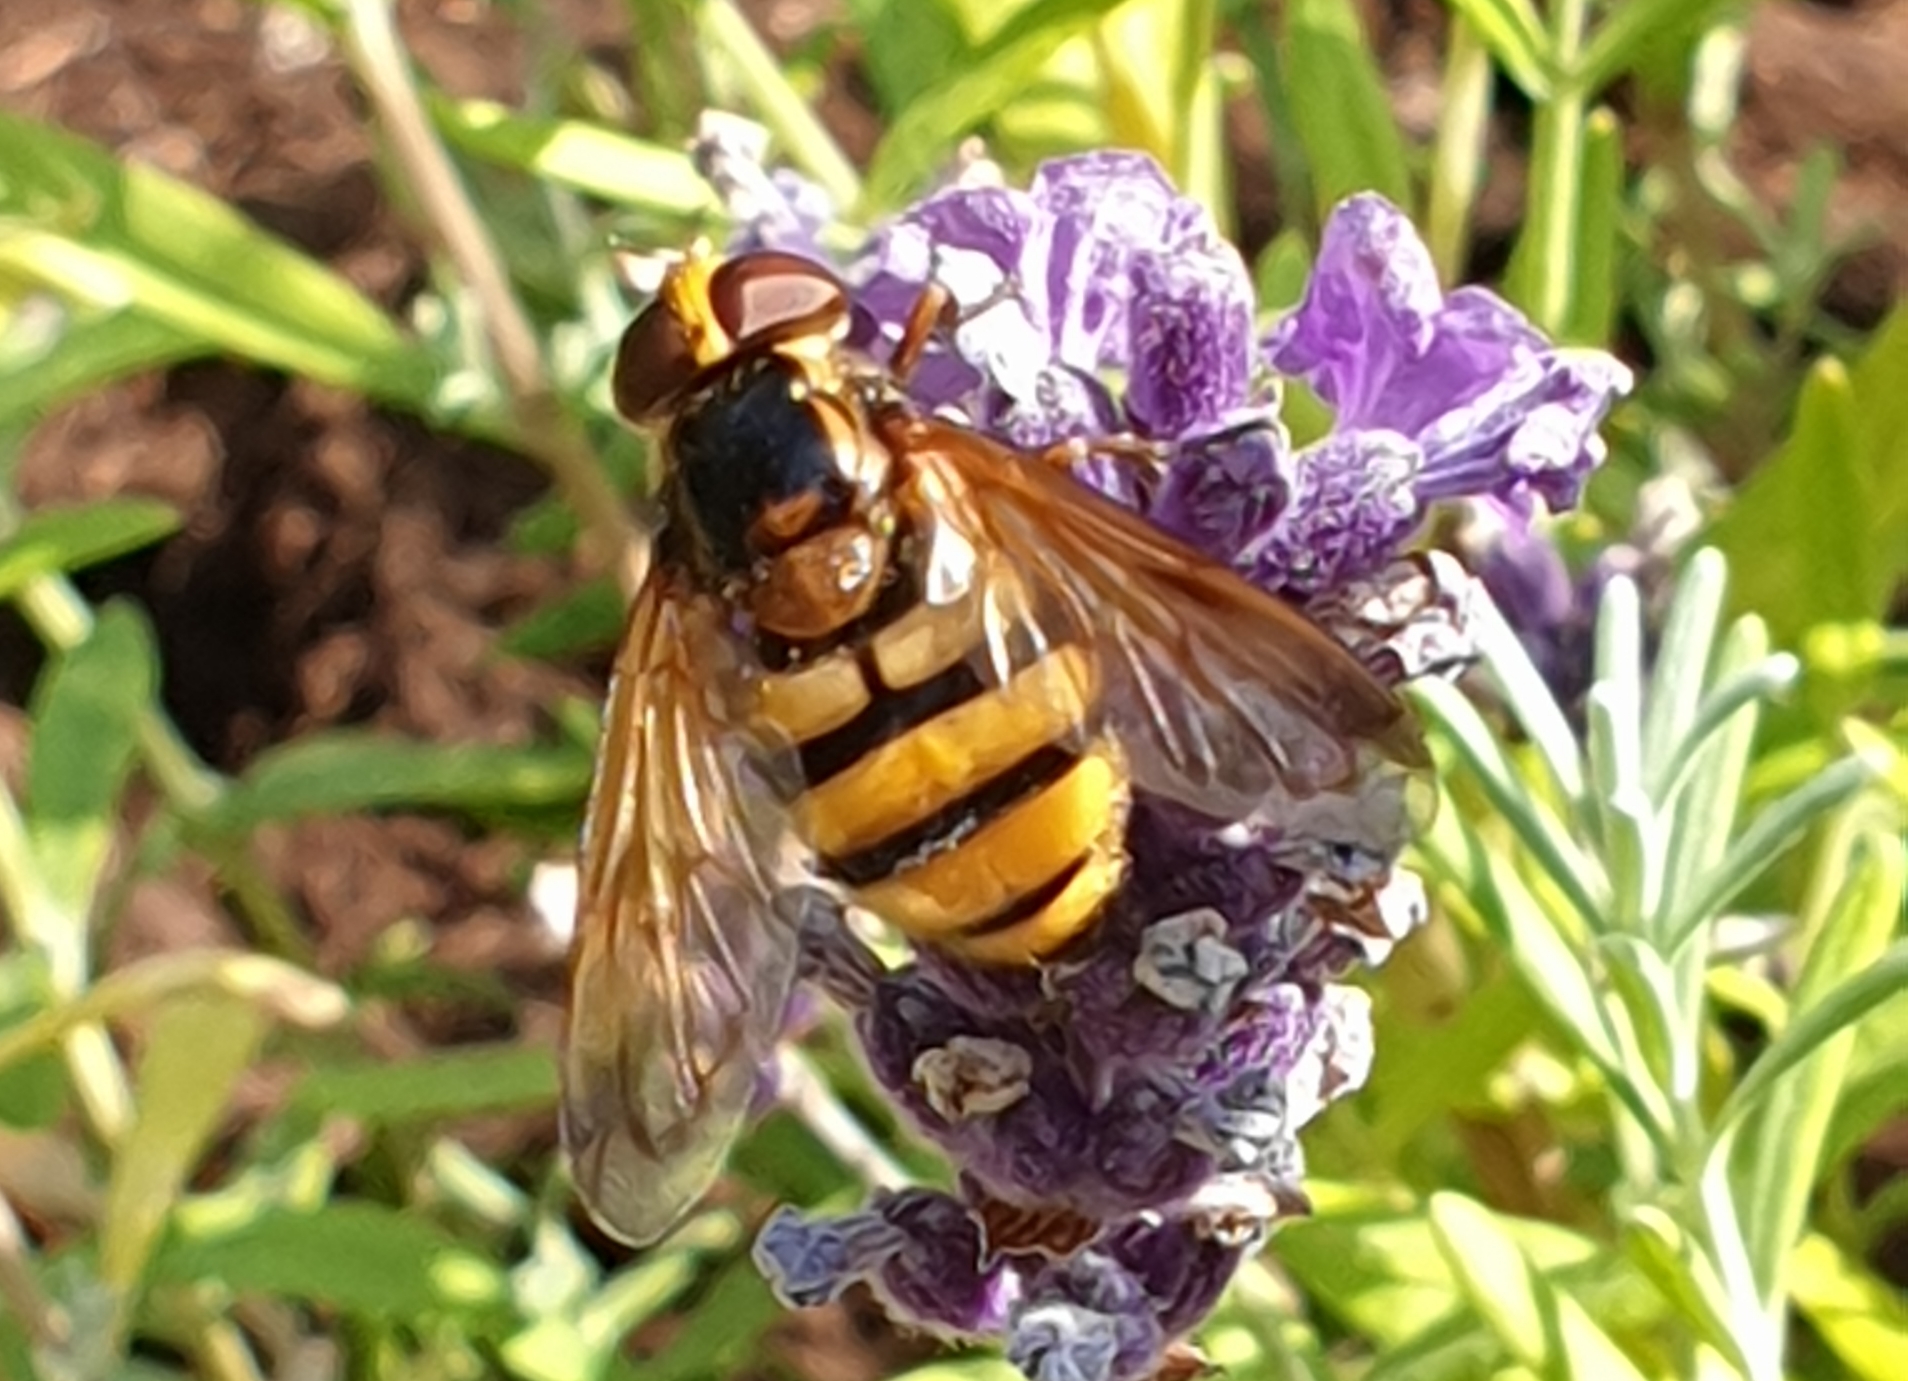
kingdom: Animalia
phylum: Arthropoda
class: Insecta
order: Diptera
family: Syrphidae
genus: Volucella
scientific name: Volucella inanis
